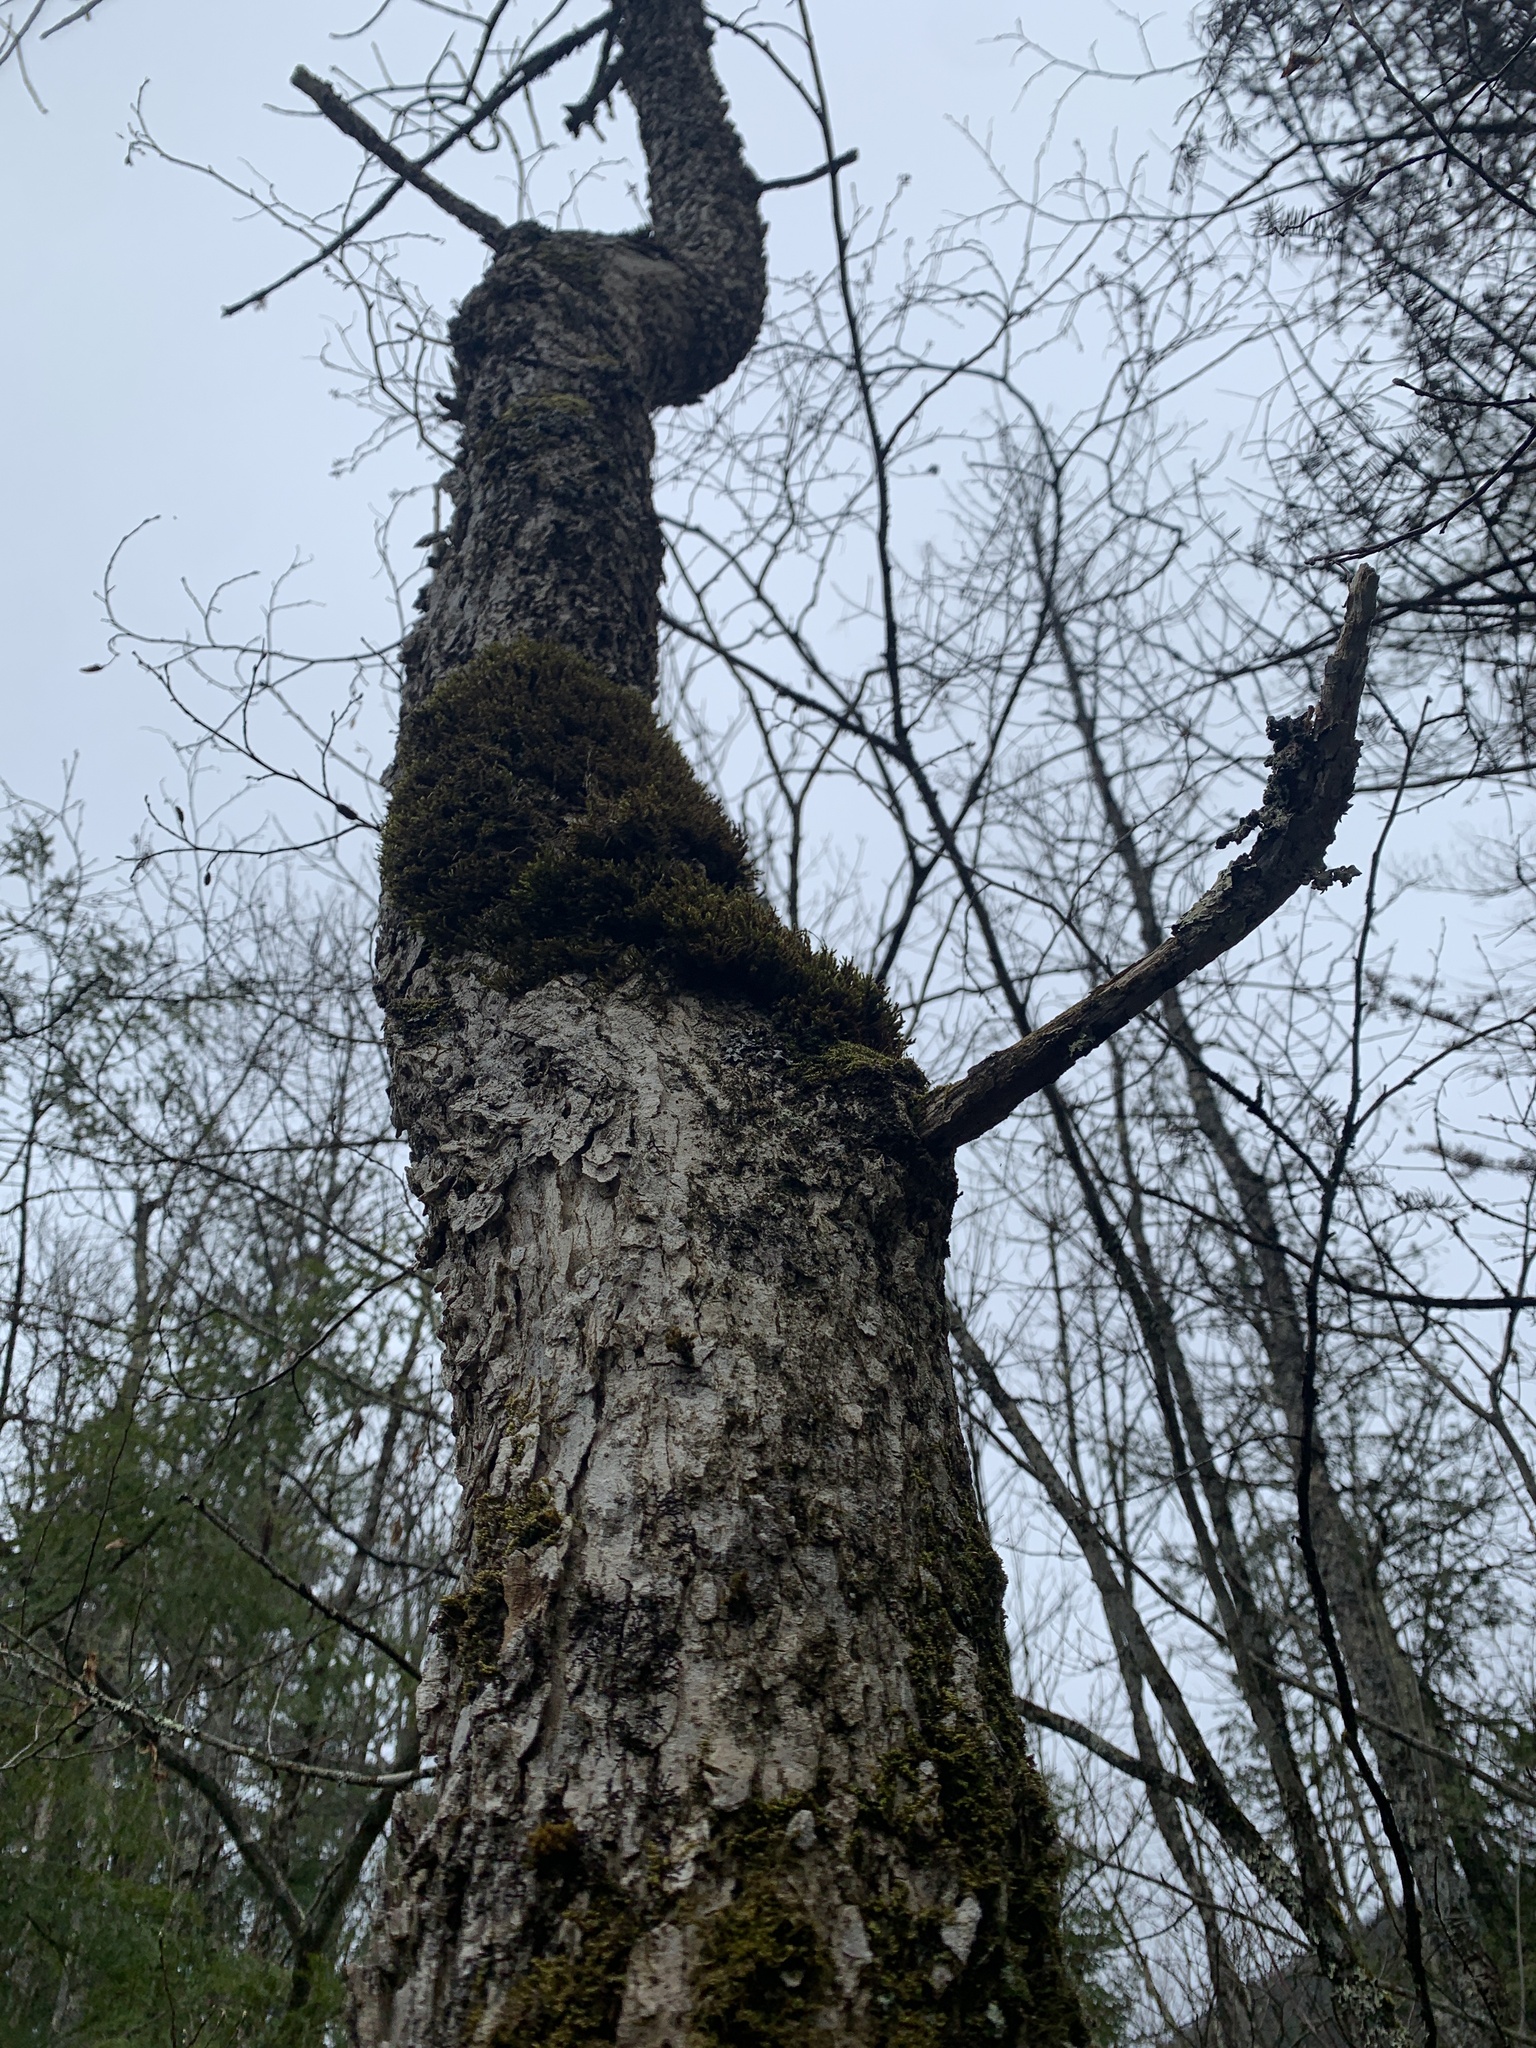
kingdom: Plantae
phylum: Tracheophyta
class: Magnoliopsida
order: Lamiales
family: Oleaceae
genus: Fraxinus
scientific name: Fraxinus nigra
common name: Black ash
